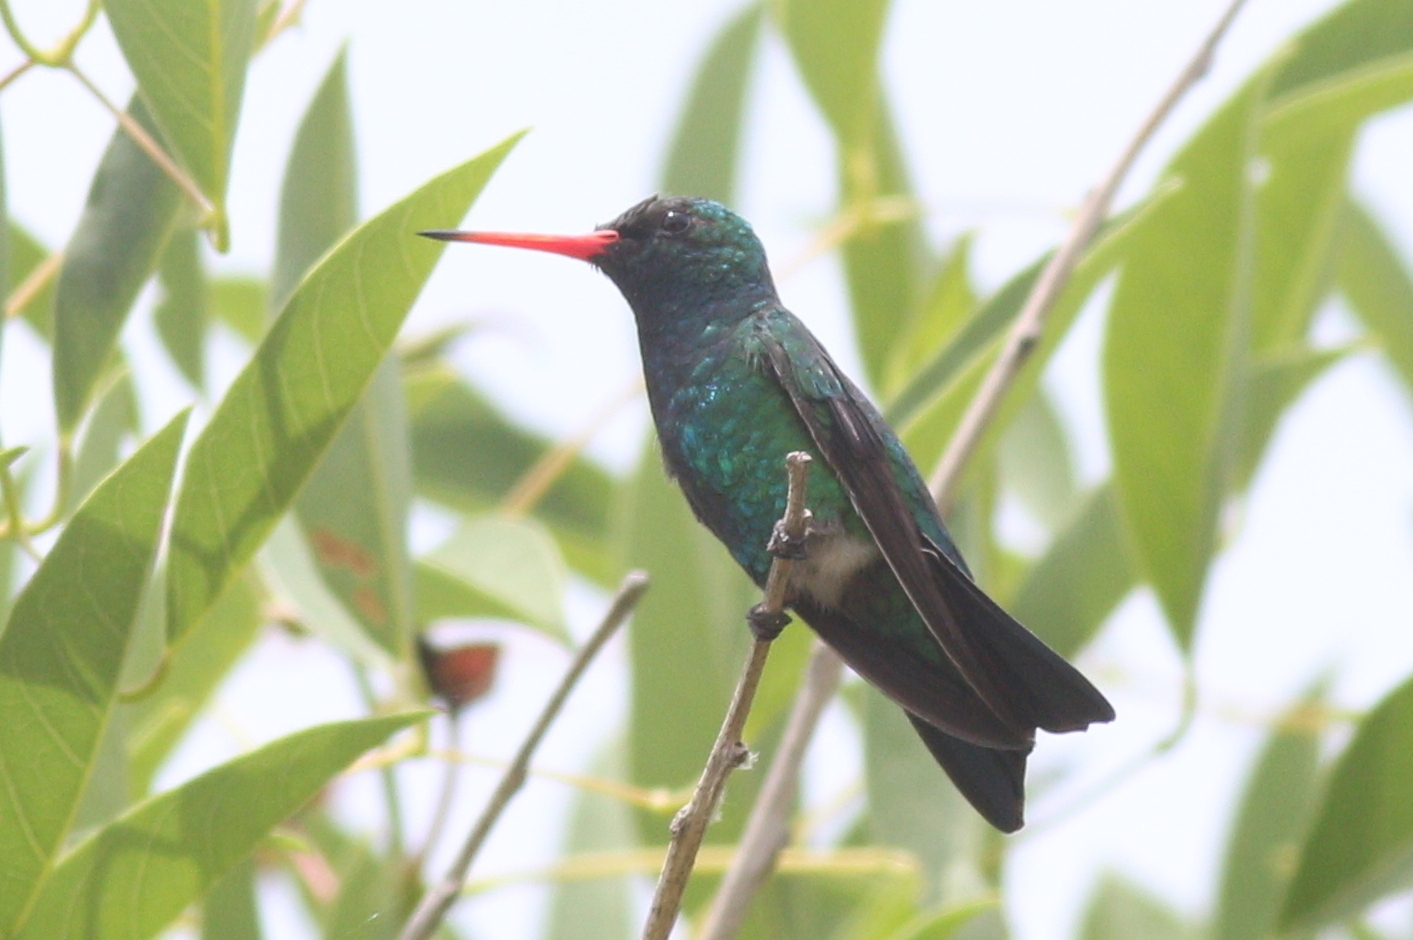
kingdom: Animalia
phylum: Chordata
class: Aves
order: Apodiformes
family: Trochilidae
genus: Chlorostilbon
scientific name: Chlorostilbon lucidus
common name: Glittering-bellied emerald
